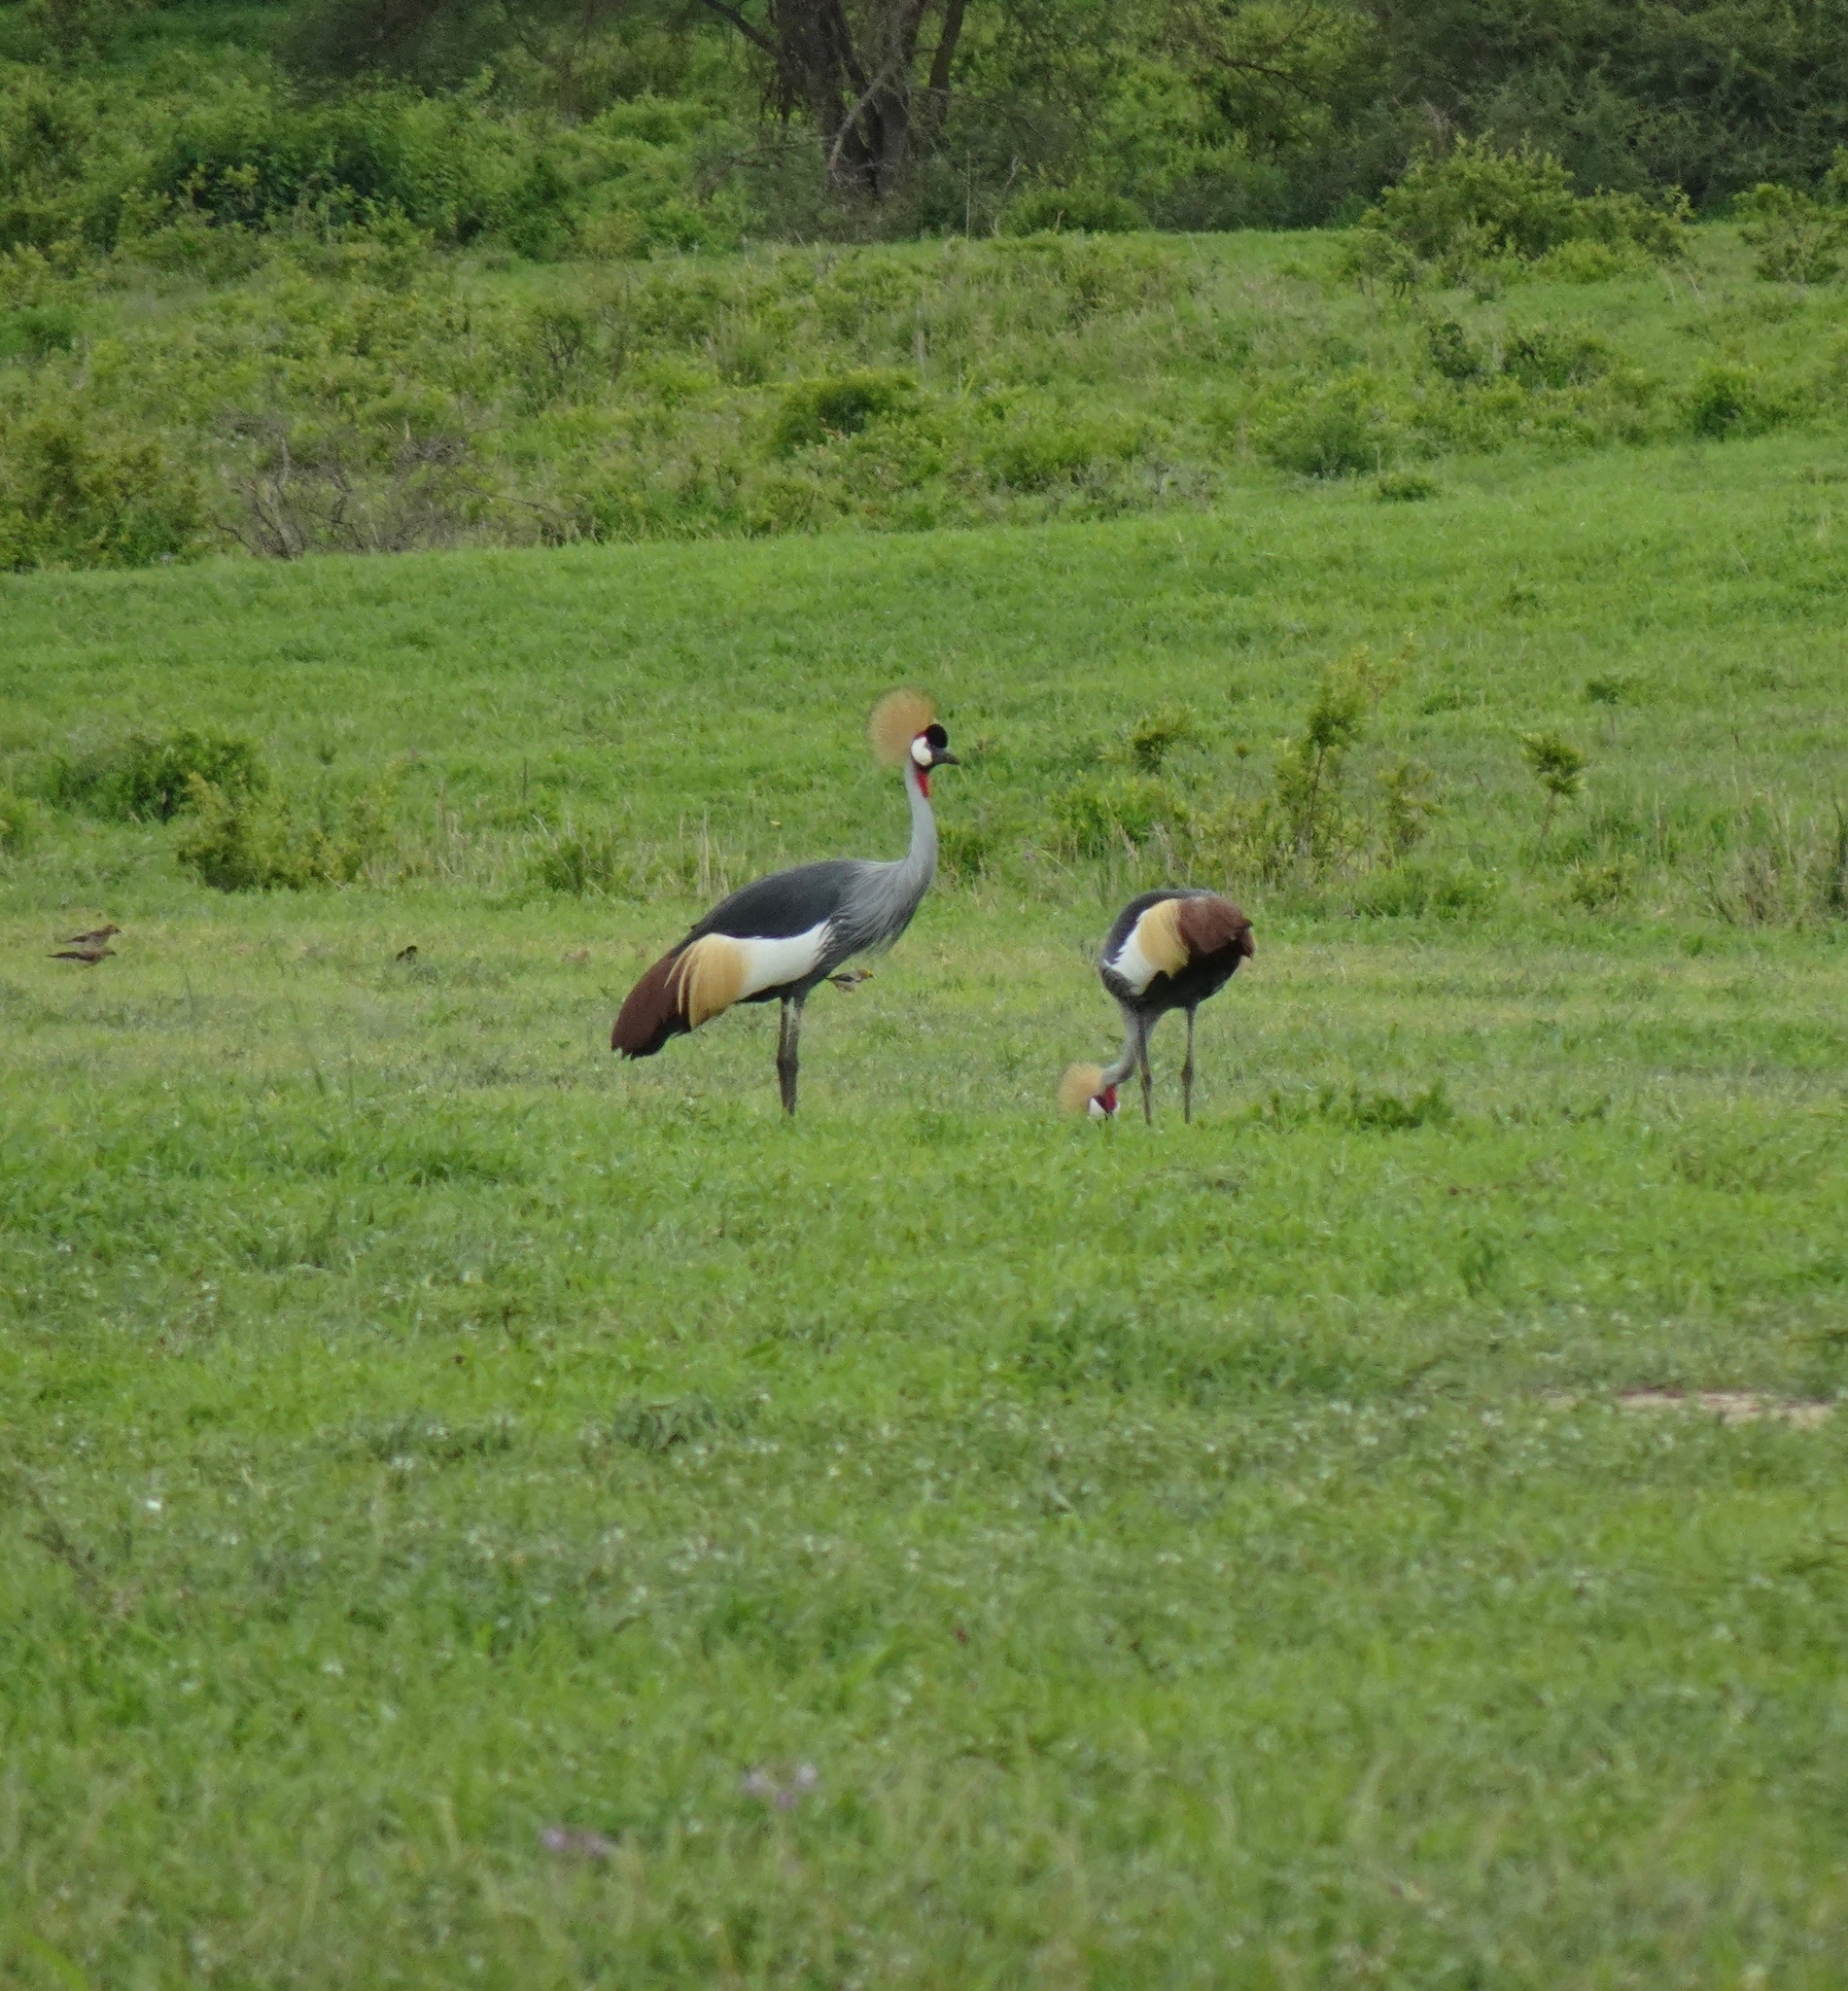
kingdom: Animalia
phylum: Chordata
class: Aves
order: Gruiformes
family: Gruidae
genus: Balearica
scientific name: Balearica regulorum
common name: Grey crowned crane
